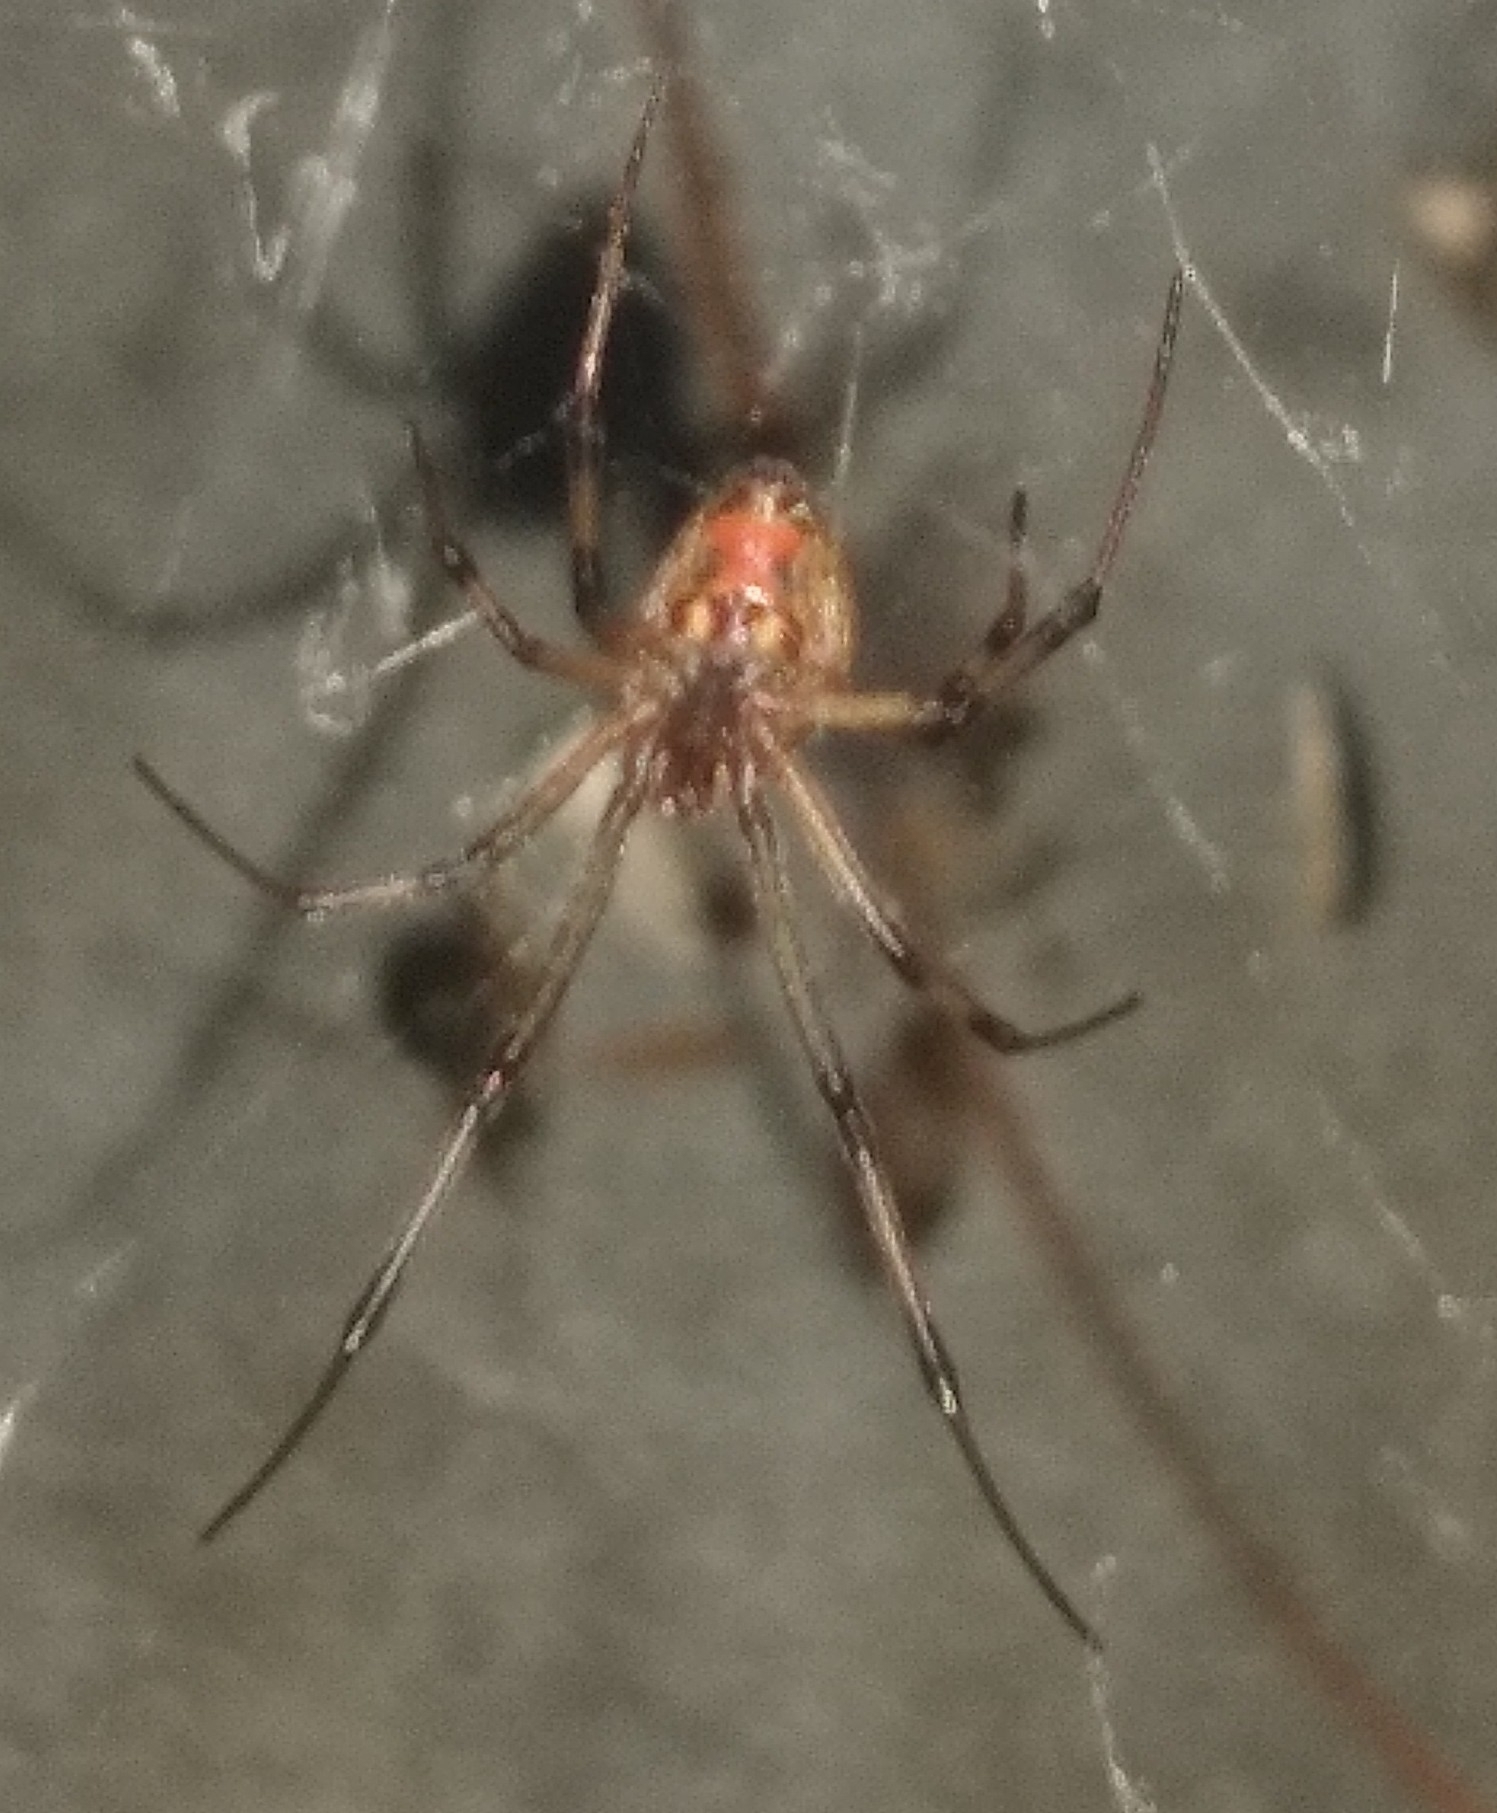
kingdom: Animalia
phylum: Arthropoda
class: Arachnida
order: Araneae
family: Theridiidae
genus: Latrodectus
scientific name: Latrodectus geometricus
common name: Brown widow spider
